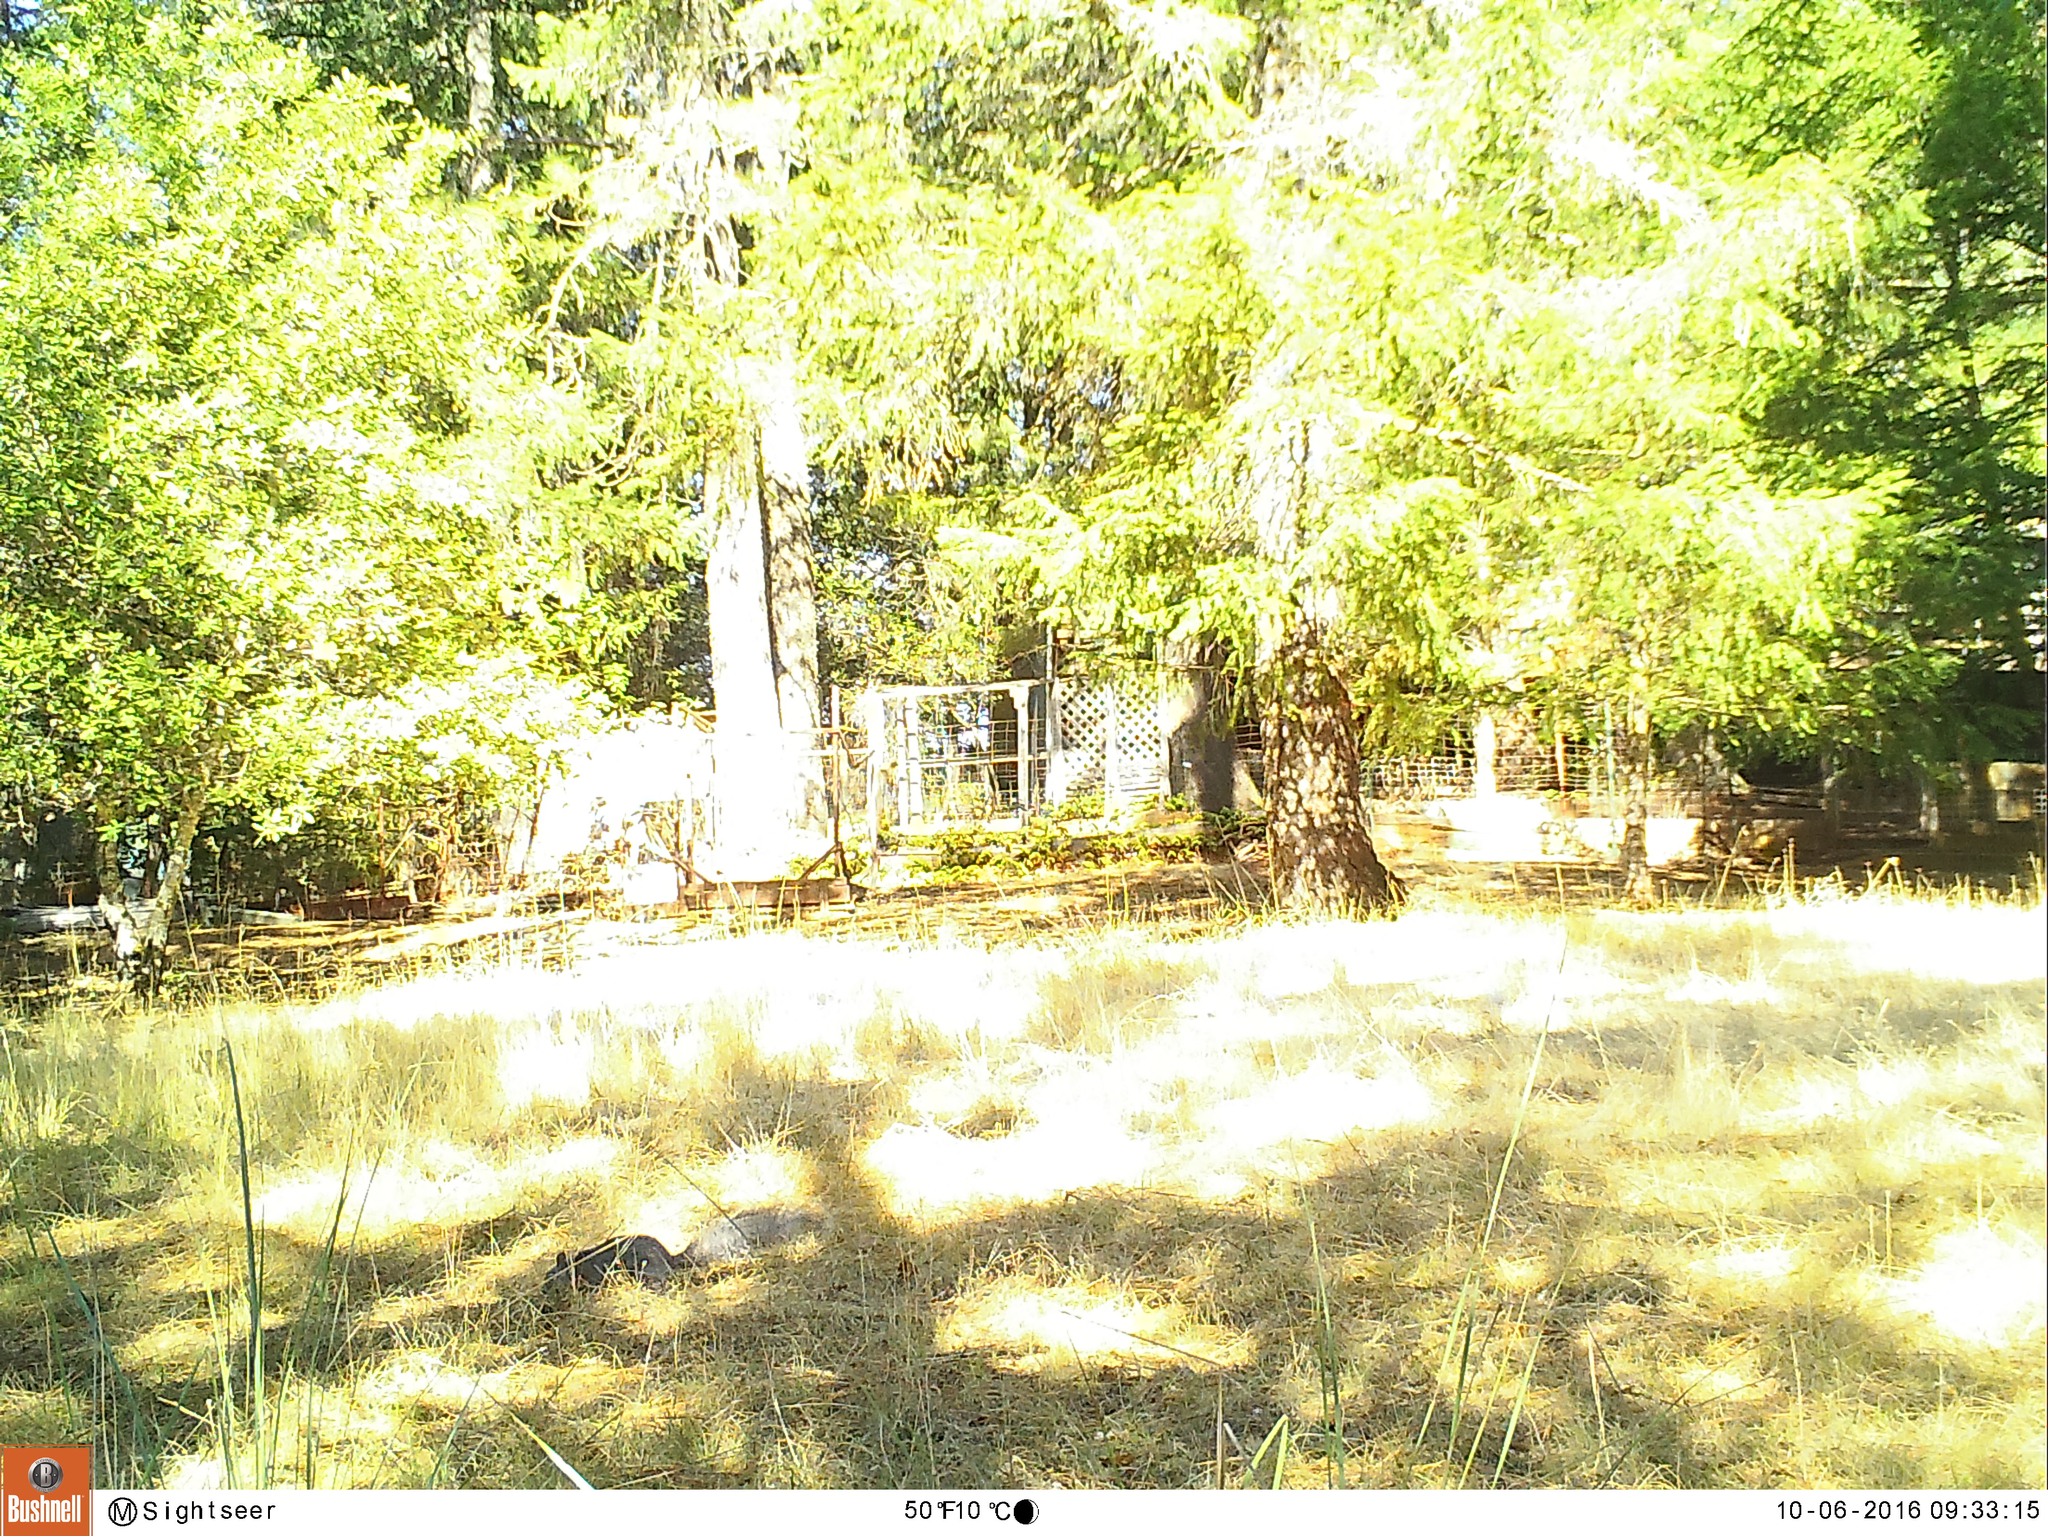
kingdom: Animalia
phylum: Chordata
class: Mammalia
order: Rodentia
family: Sciuridae
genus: Sciurus
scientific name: Sciurus griseus
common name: Western gray squirrel
